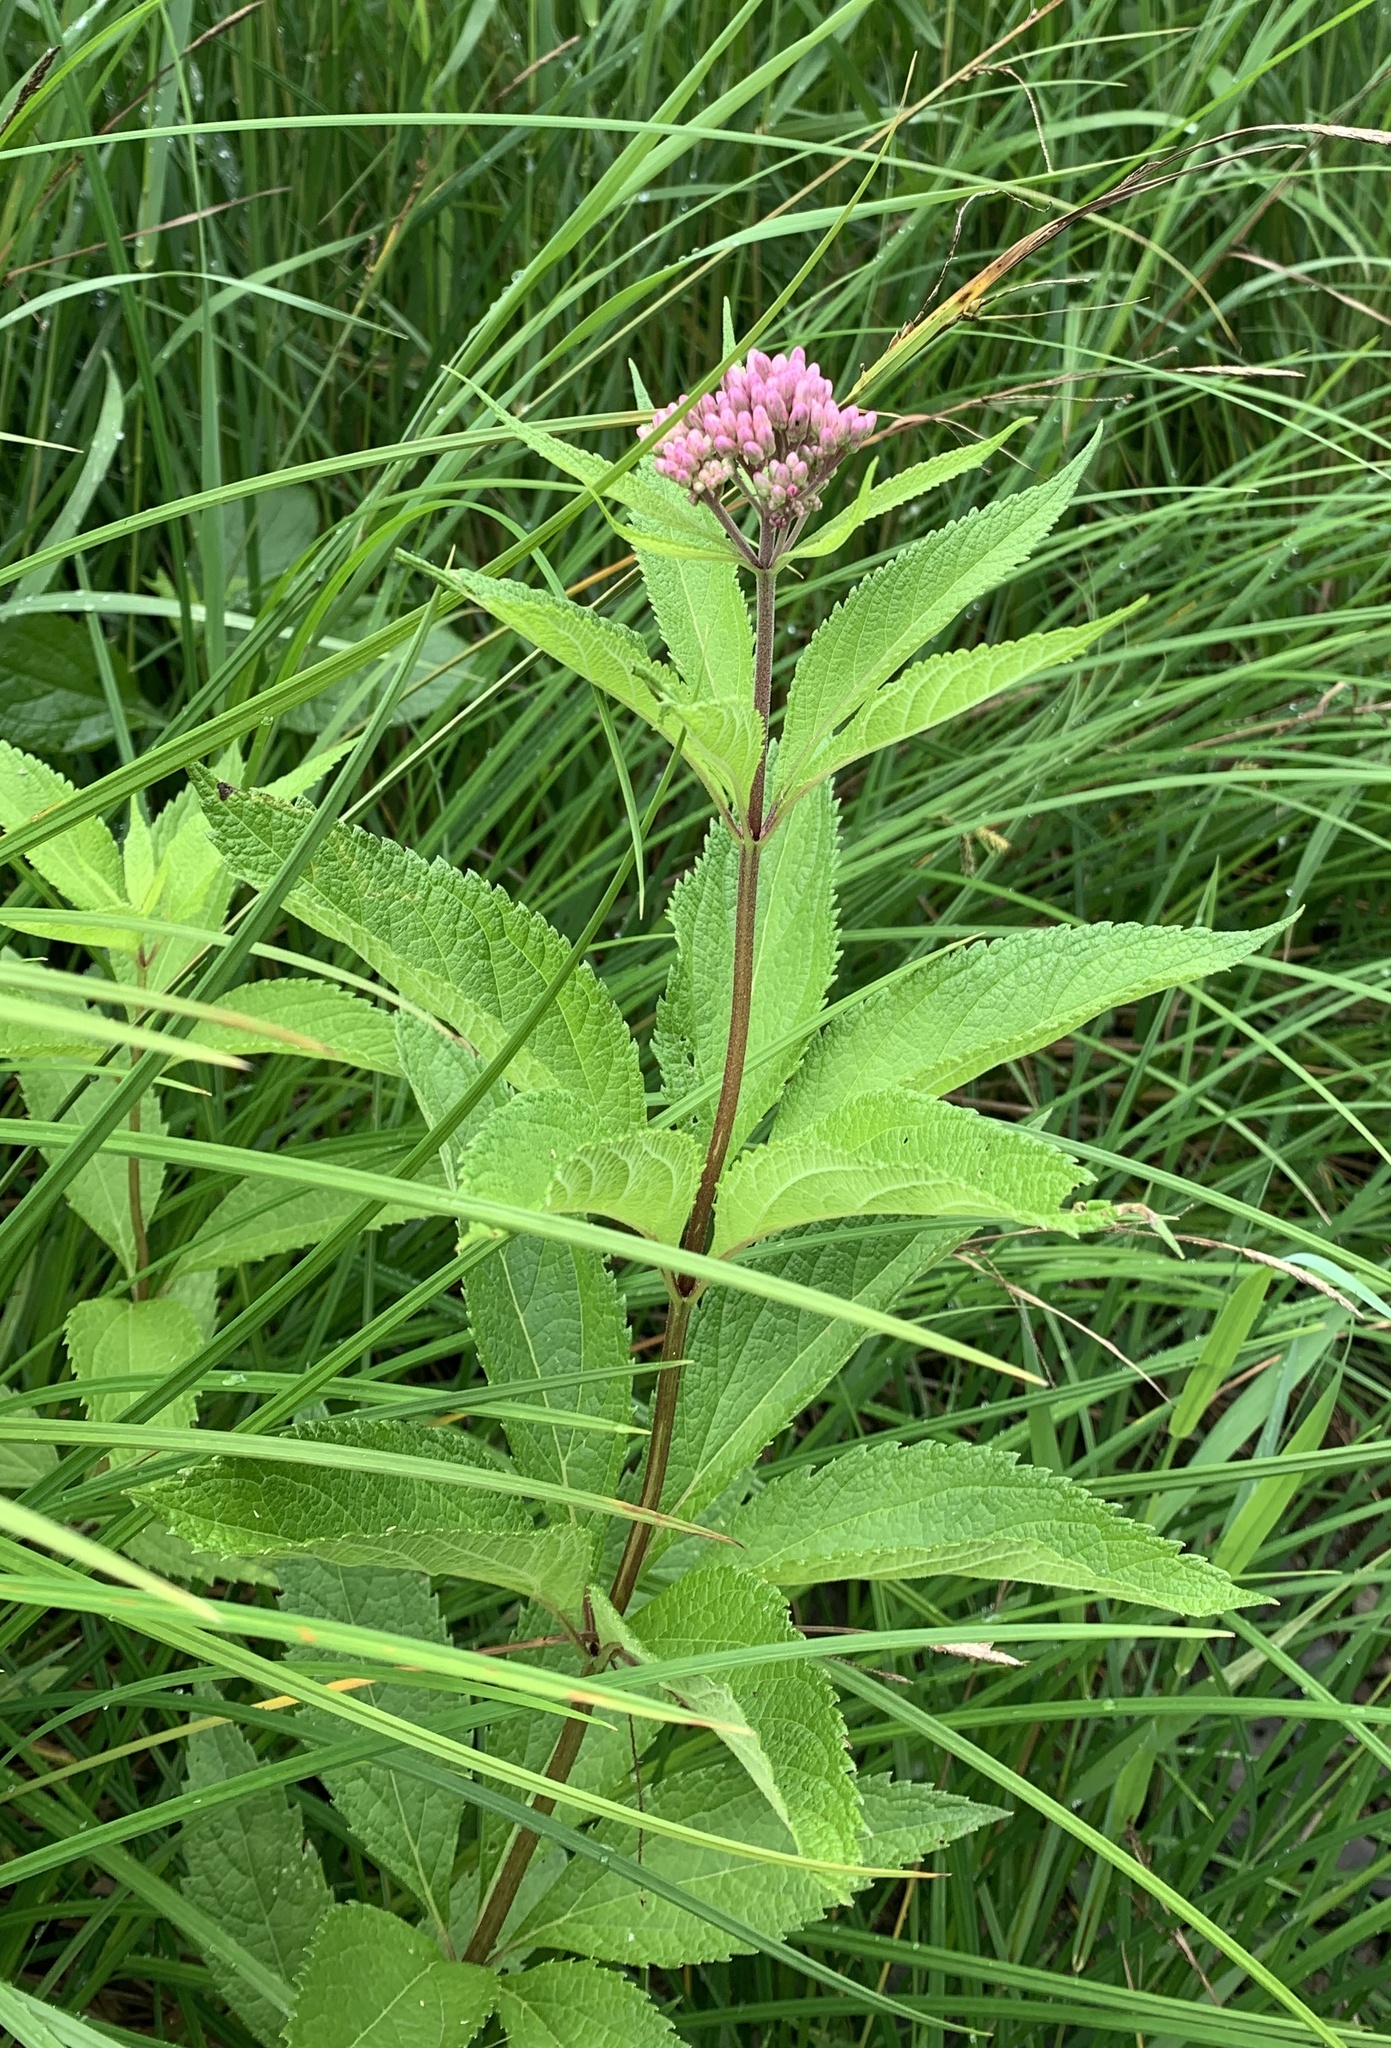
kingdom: Plantae
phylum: Tracheophyta
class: Magnoliopsida
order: Asterales
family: Asteraceae
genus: Eutrochium
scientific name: Eutrochium maculatum
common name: Spotted joe pye weed
